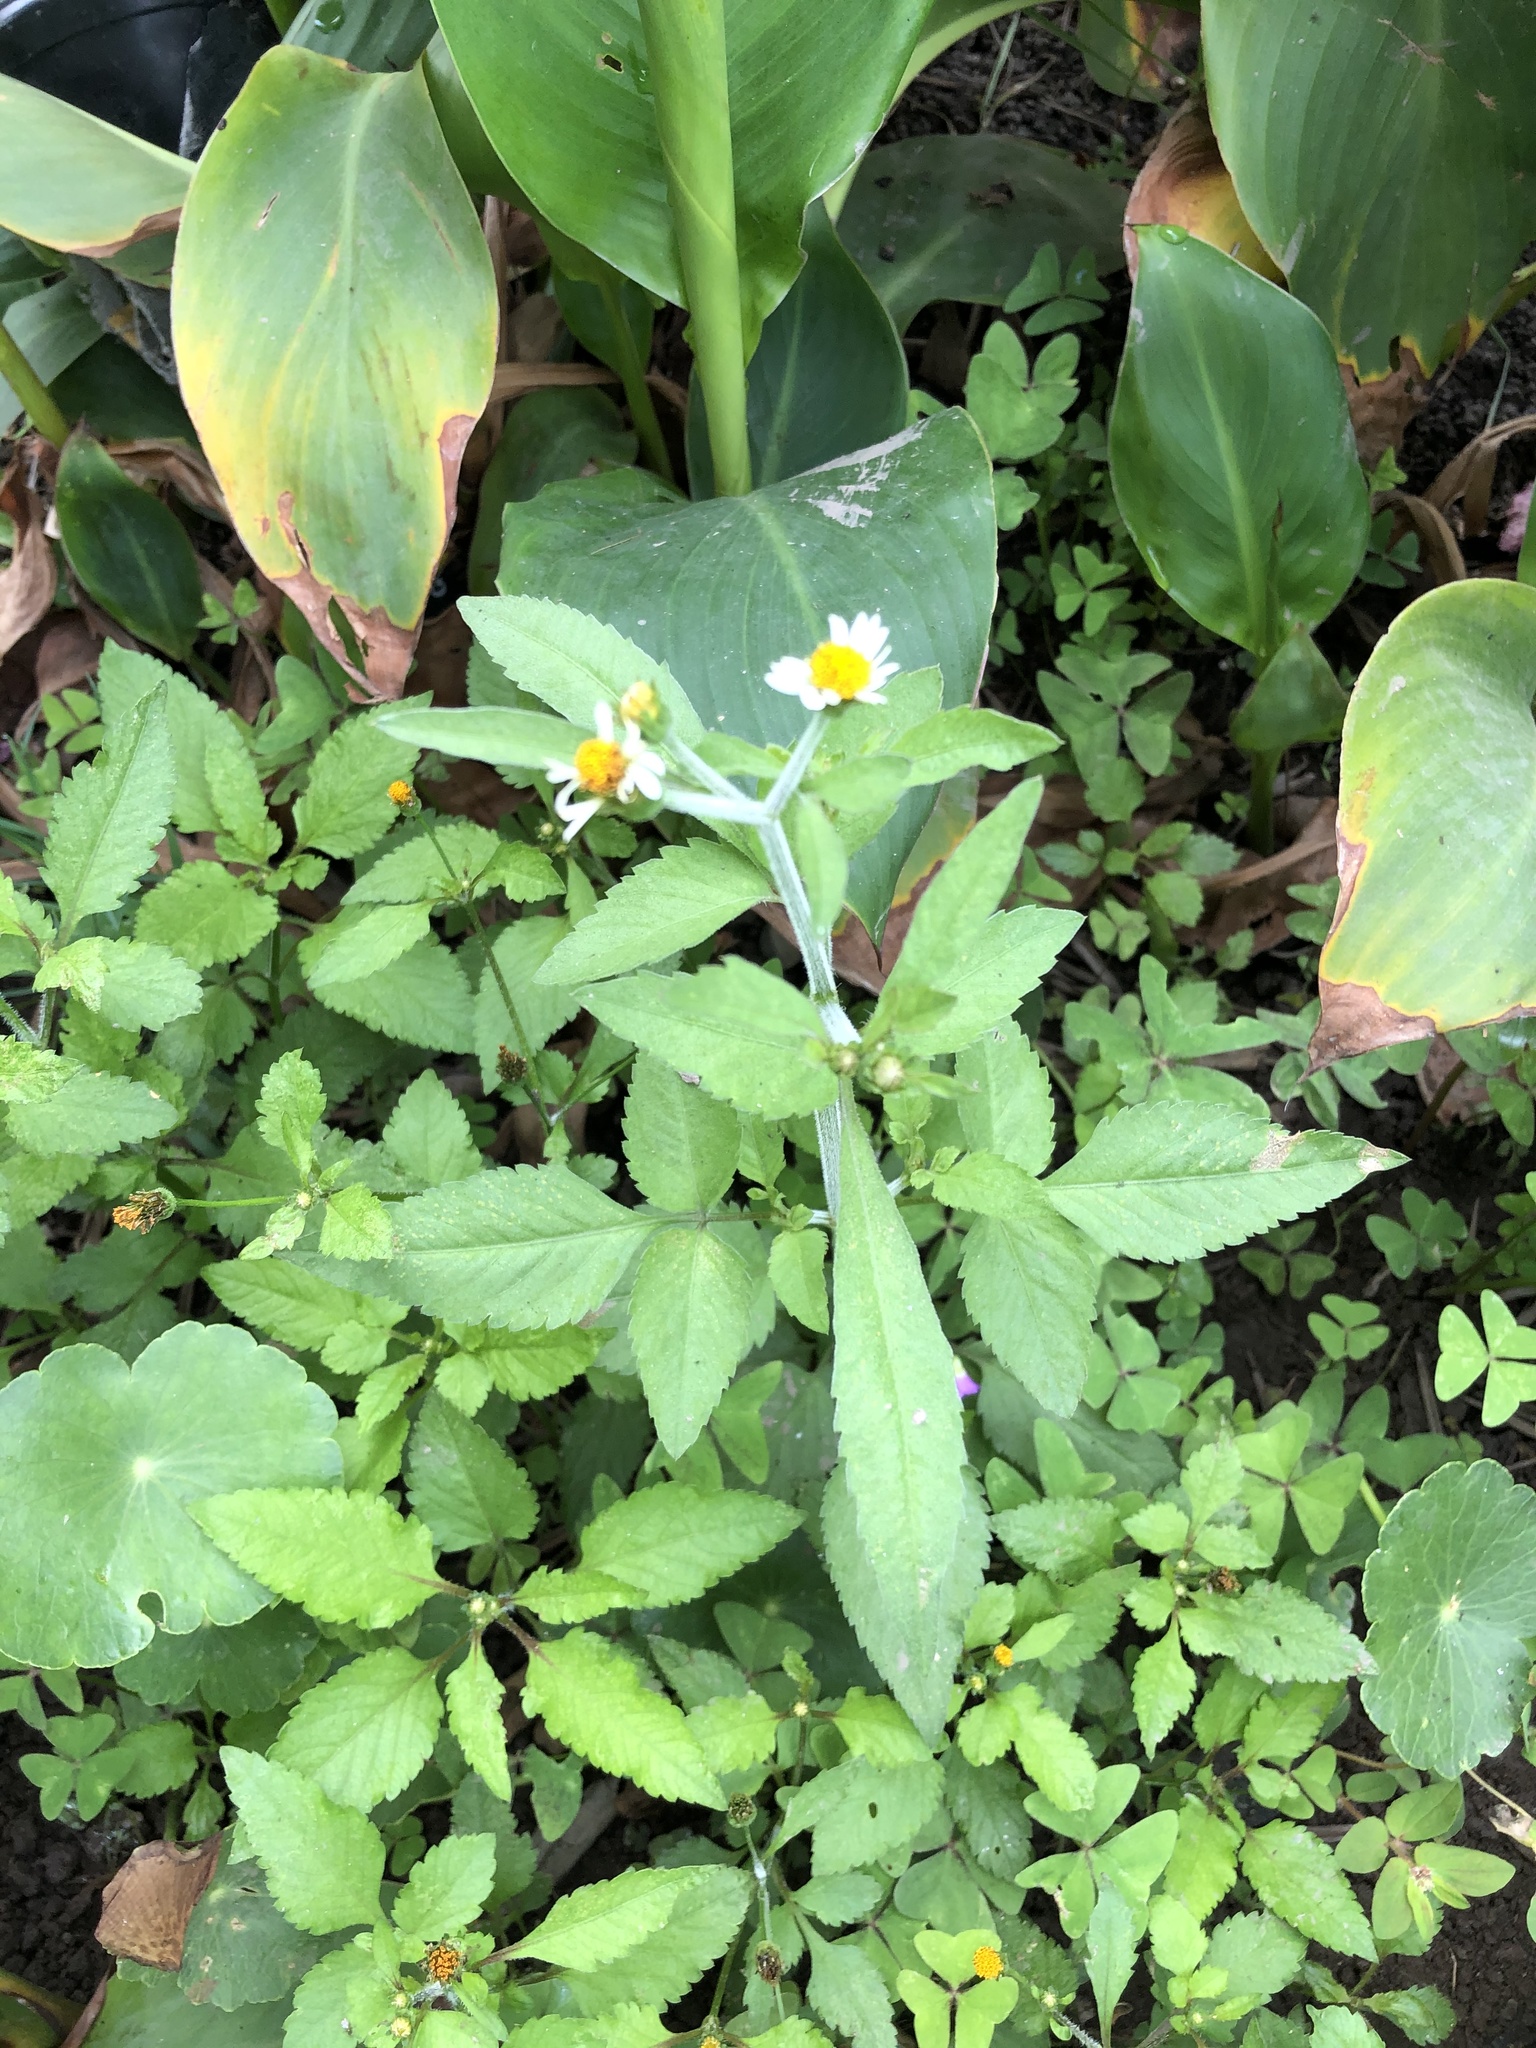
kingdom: Plantae
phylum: Tracheophyta
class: Magnoliopsida
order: Asterales
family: Asteraceae
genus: Bidens
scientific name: Bidens alba
